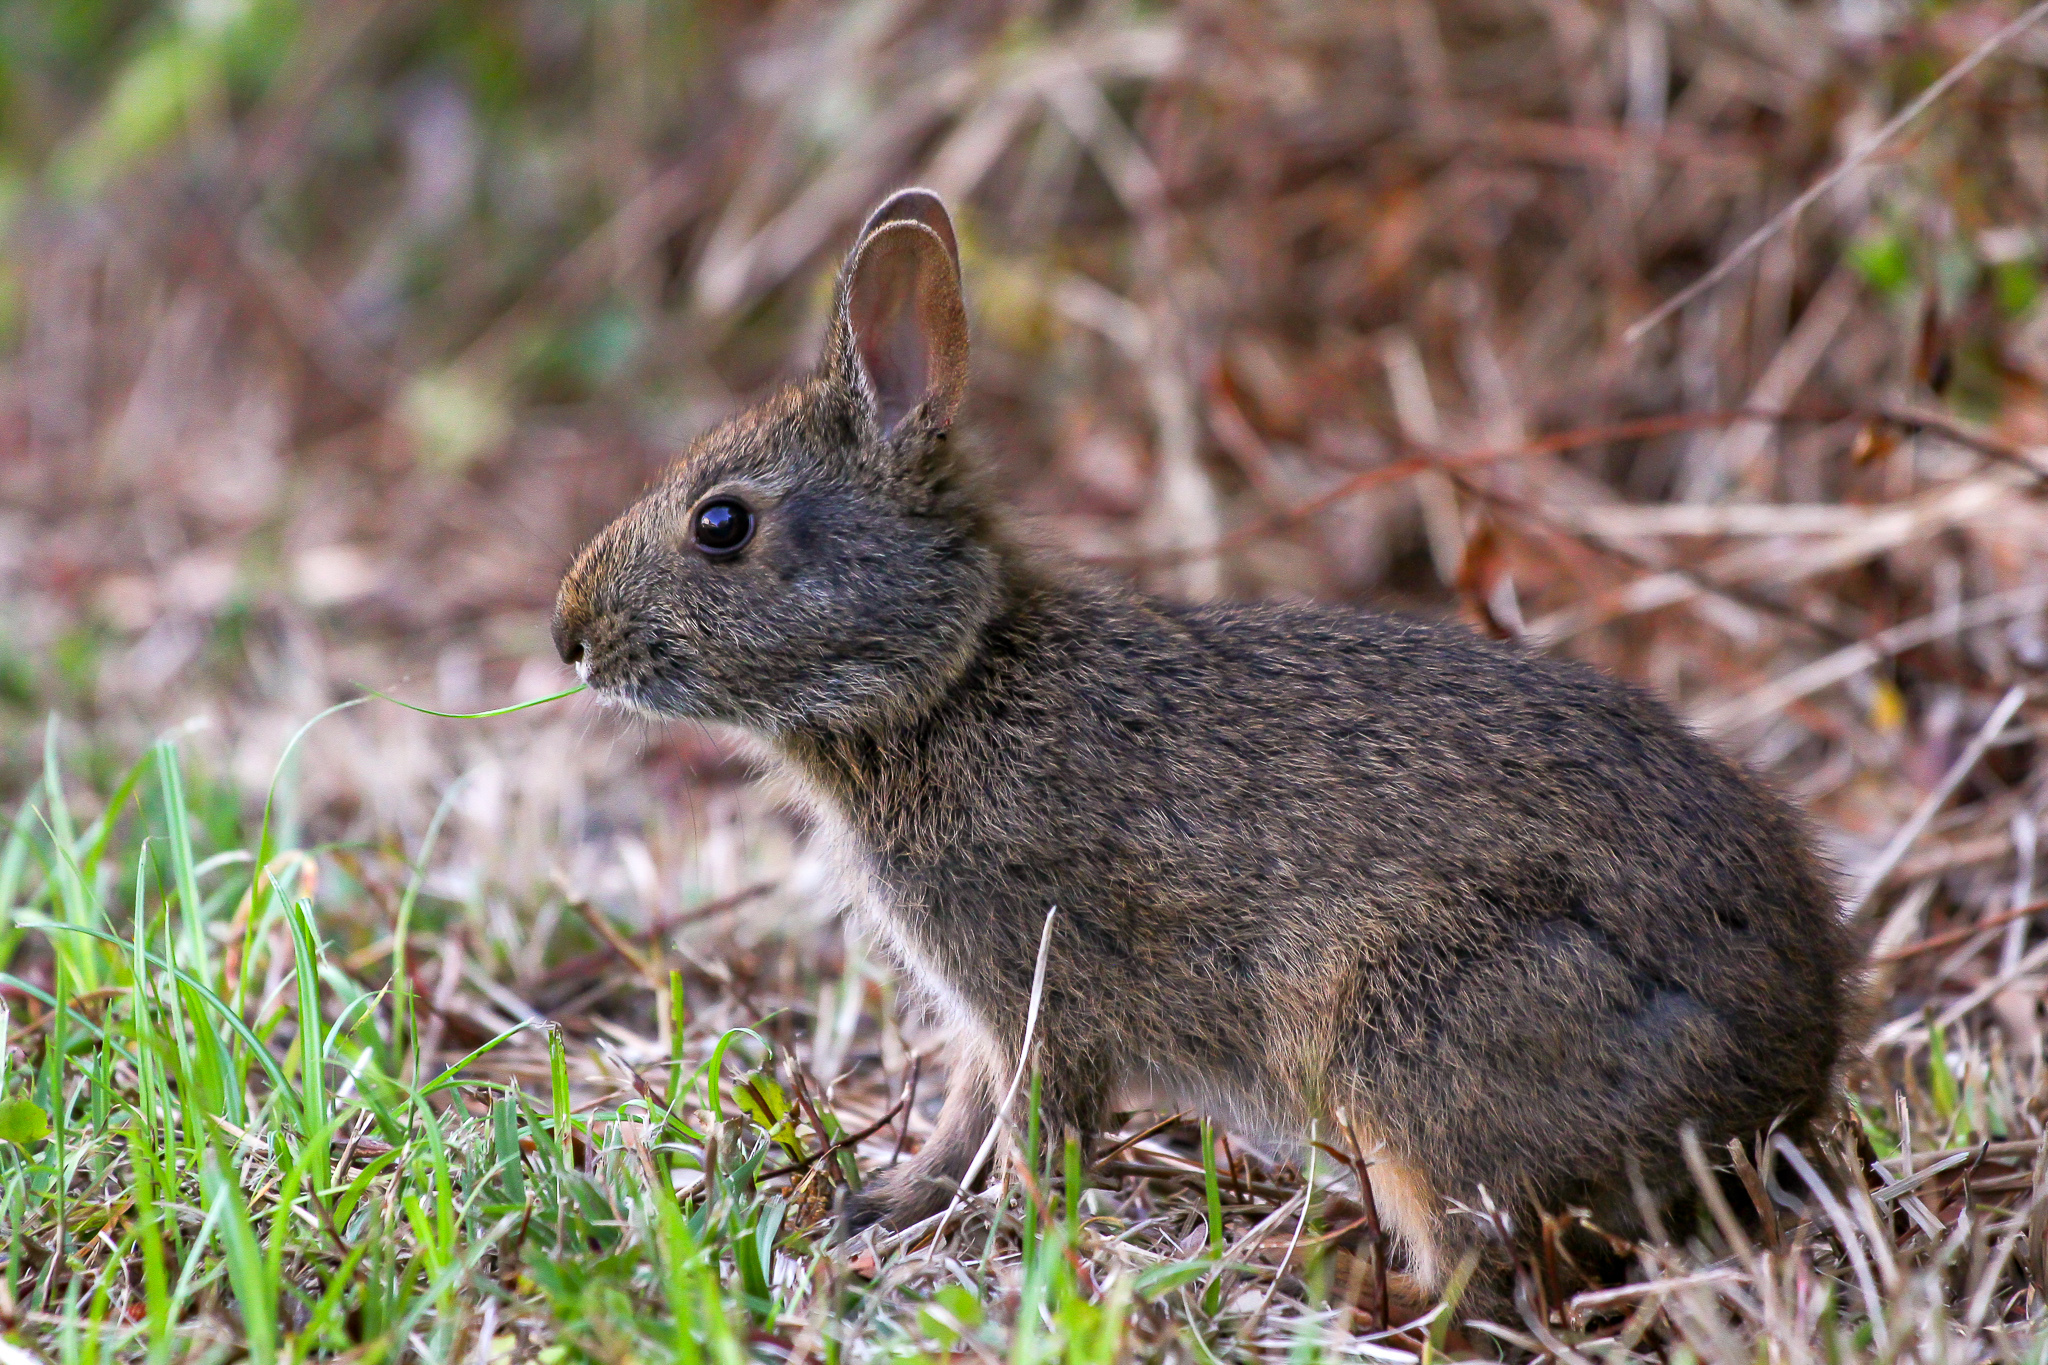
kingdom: Animalia
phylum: Chordata
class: Mammalia
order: Lagomorpha
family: Leporidae
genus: Sylvilagus
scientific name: Sylvilagus palustris
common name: Marsh rabbit
